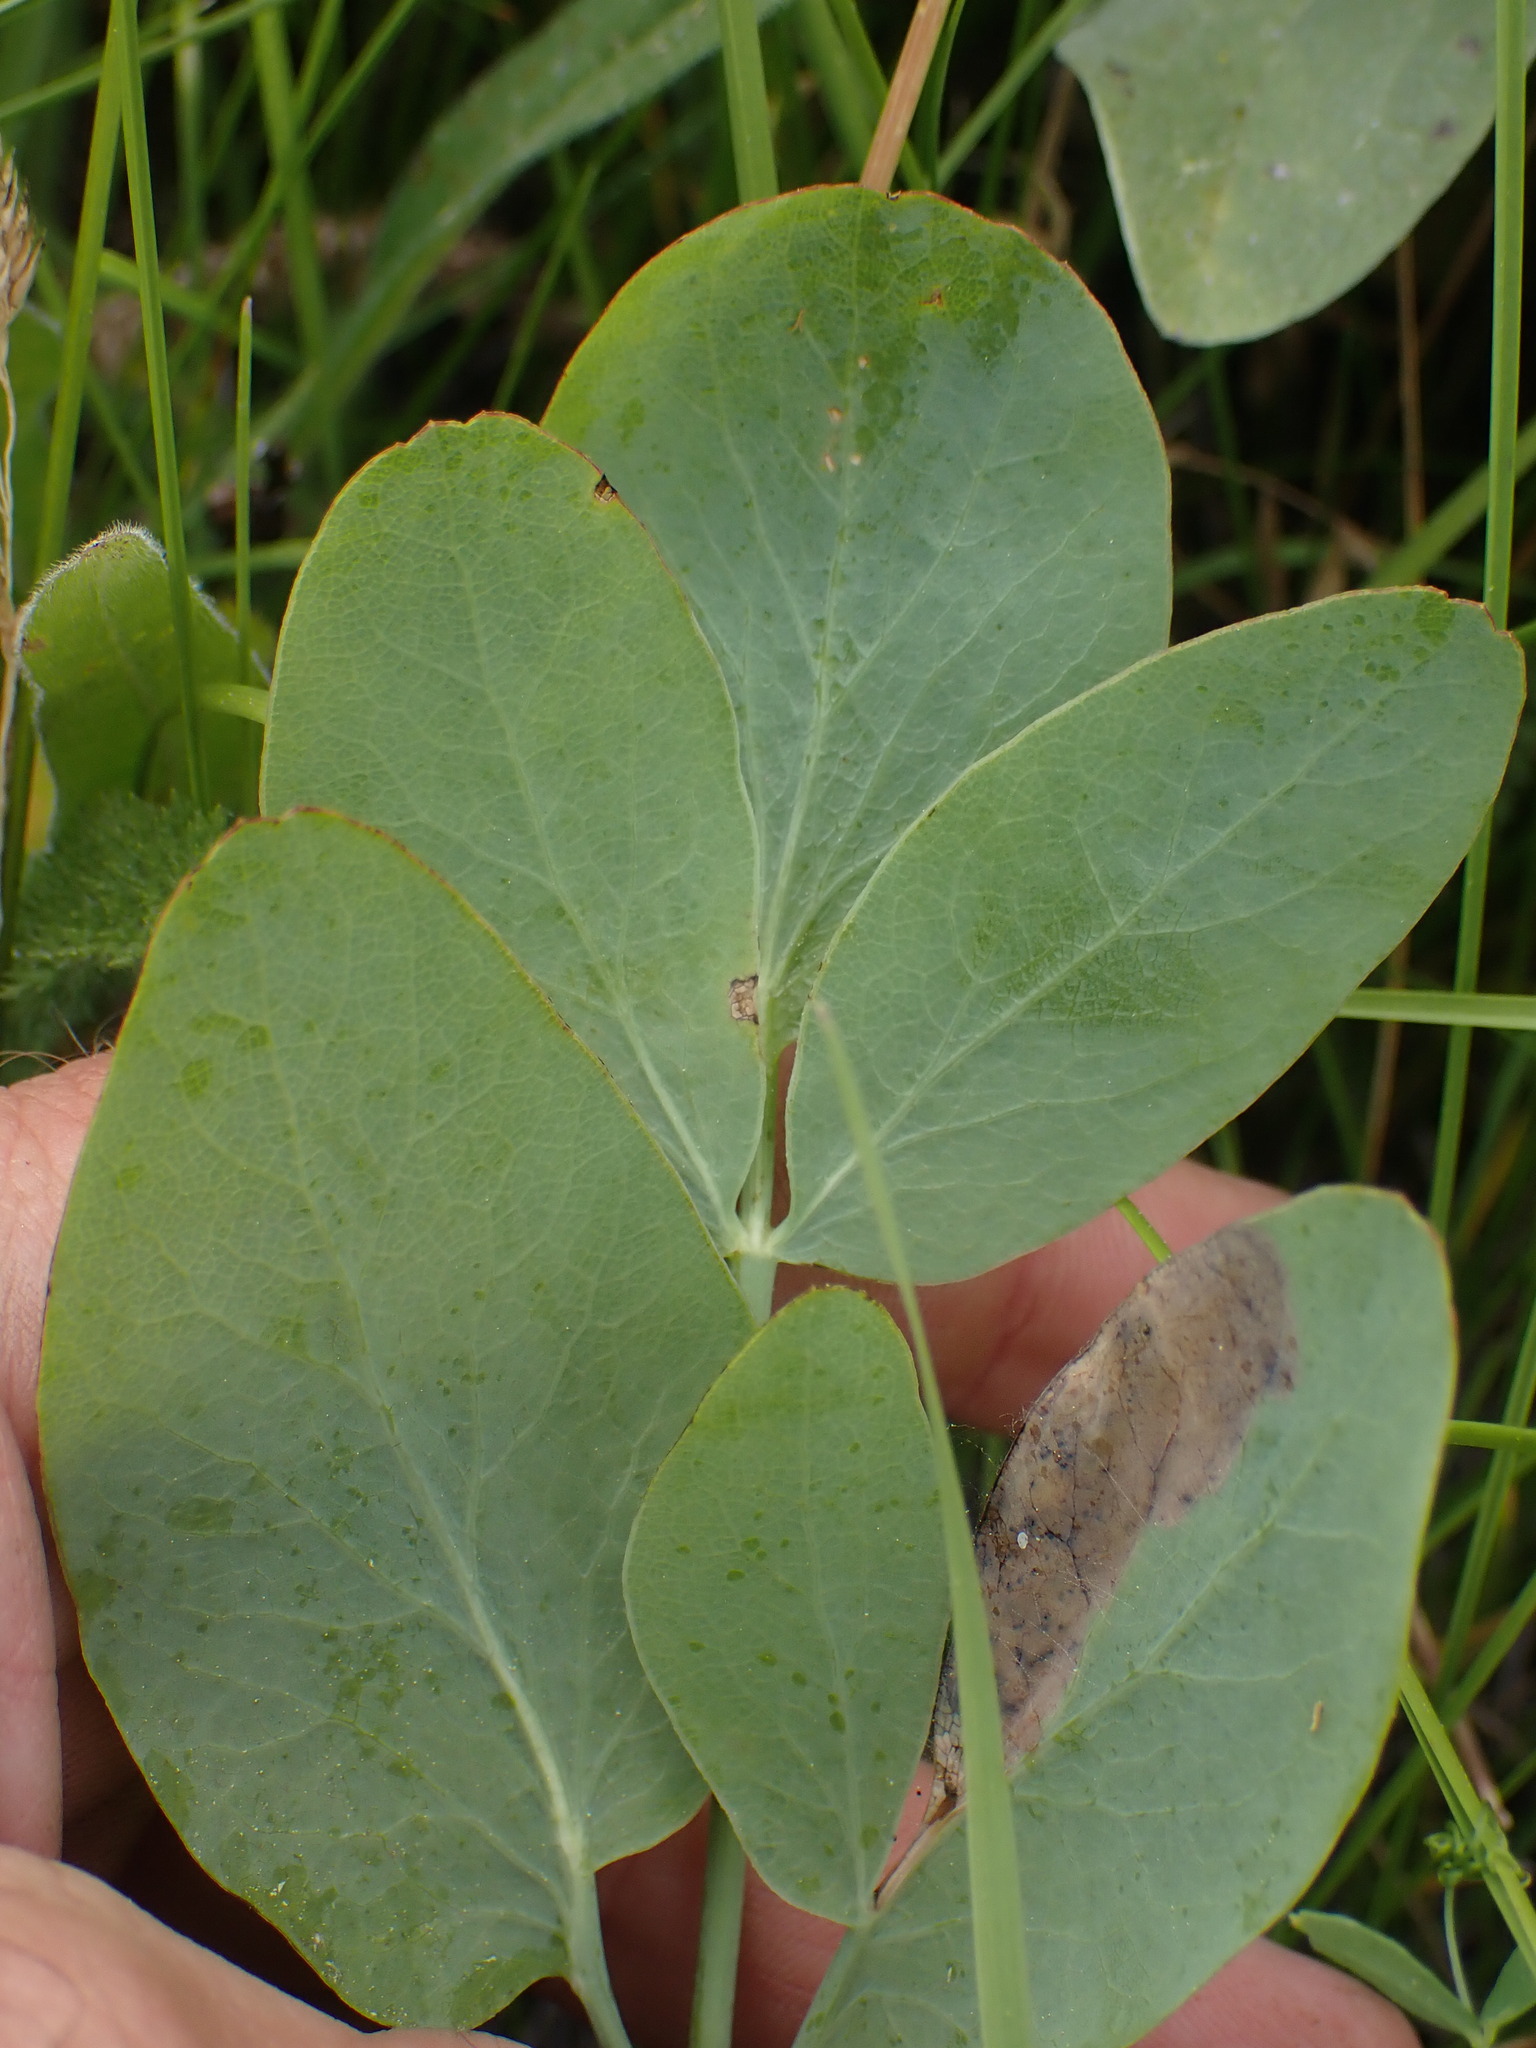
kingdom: Plantae
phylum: Tracheophyta
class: Magnoliopsida
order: Apiales
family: Apiaceae
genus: Lomatium
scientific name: Lomatium nudicaule
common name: Pestle lomatium
